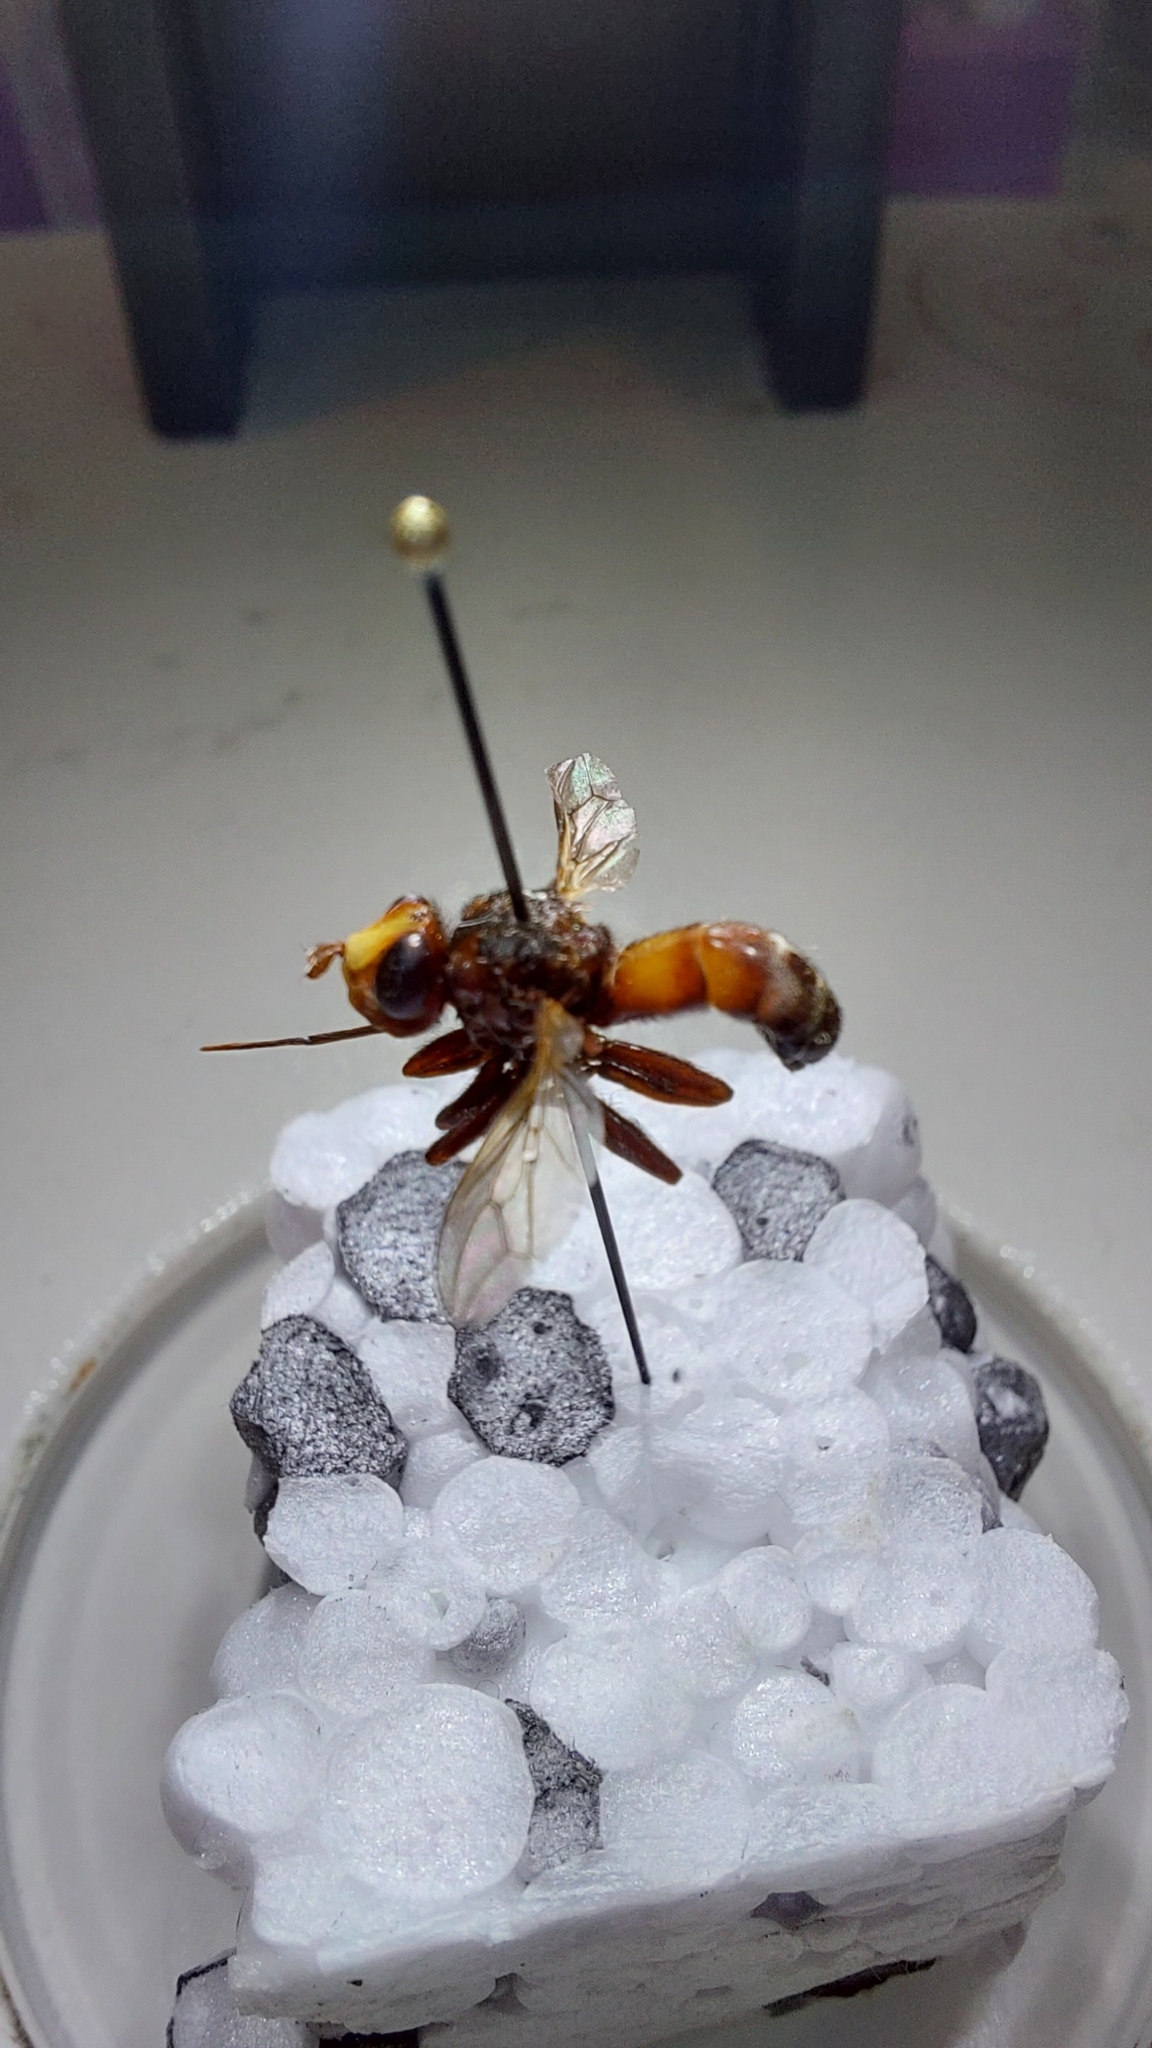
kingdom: Animalia
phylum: Arthropoda
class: Insecta
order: Diptera
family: Conopidae
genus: Sicus
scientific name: Sicus ferrugineus
